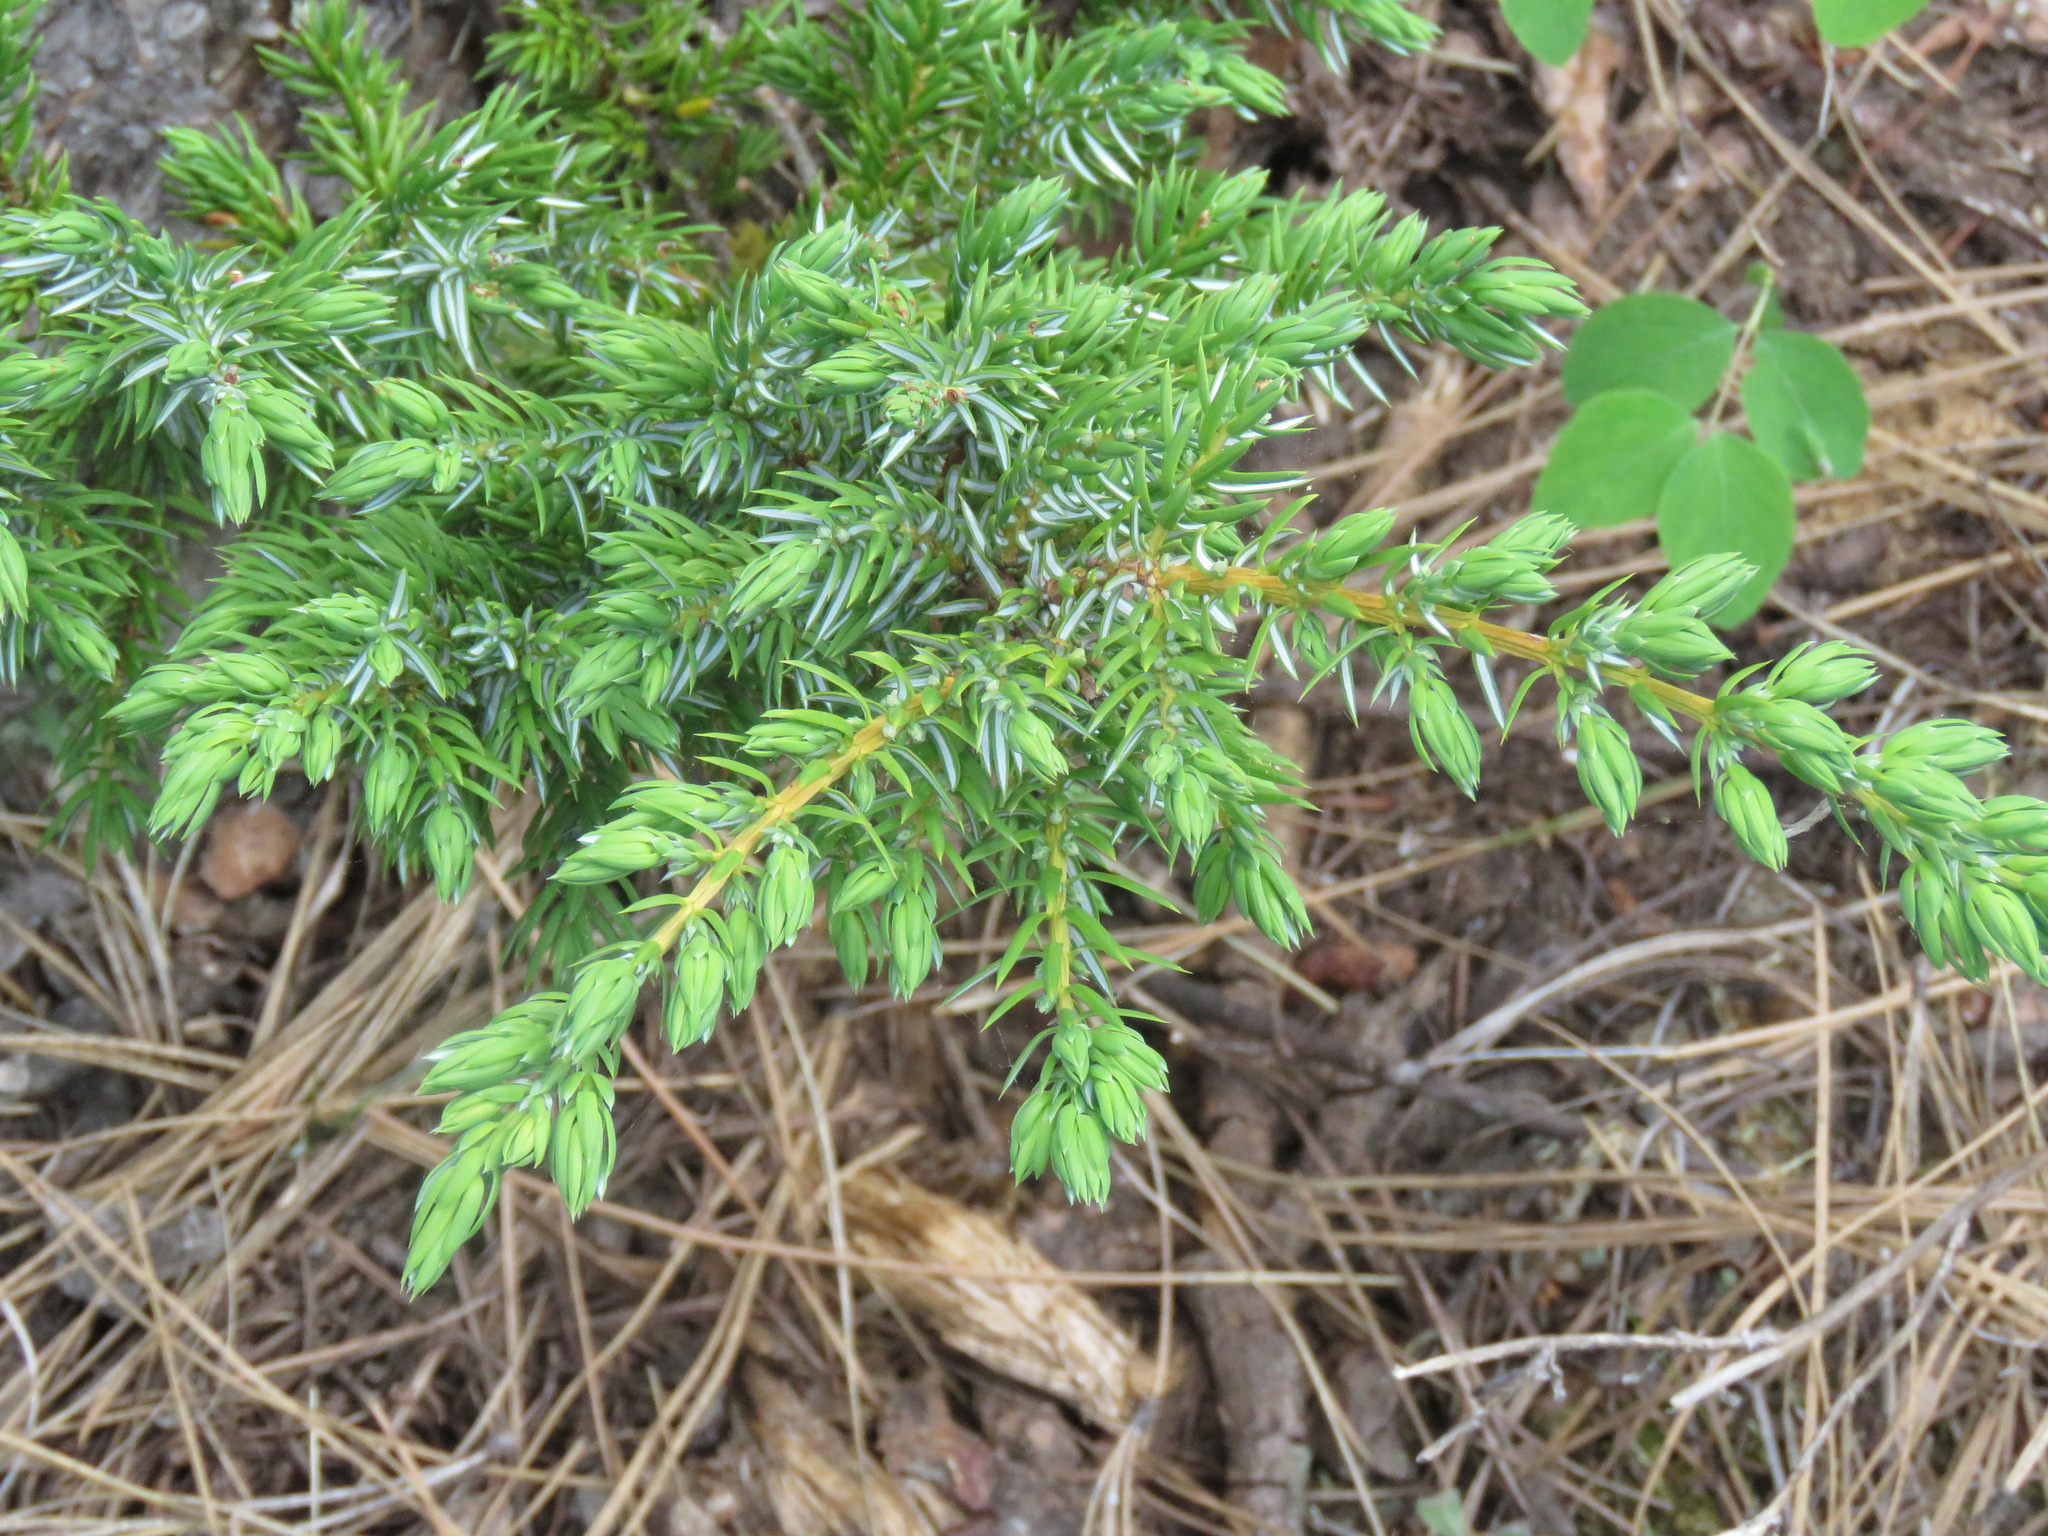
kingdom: Plantae
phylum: Tracheophyta
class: Pinopsida
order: Pinales
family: Cupressaceae
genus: Juniperus
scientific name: Juniperus communis
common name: Common juniper
